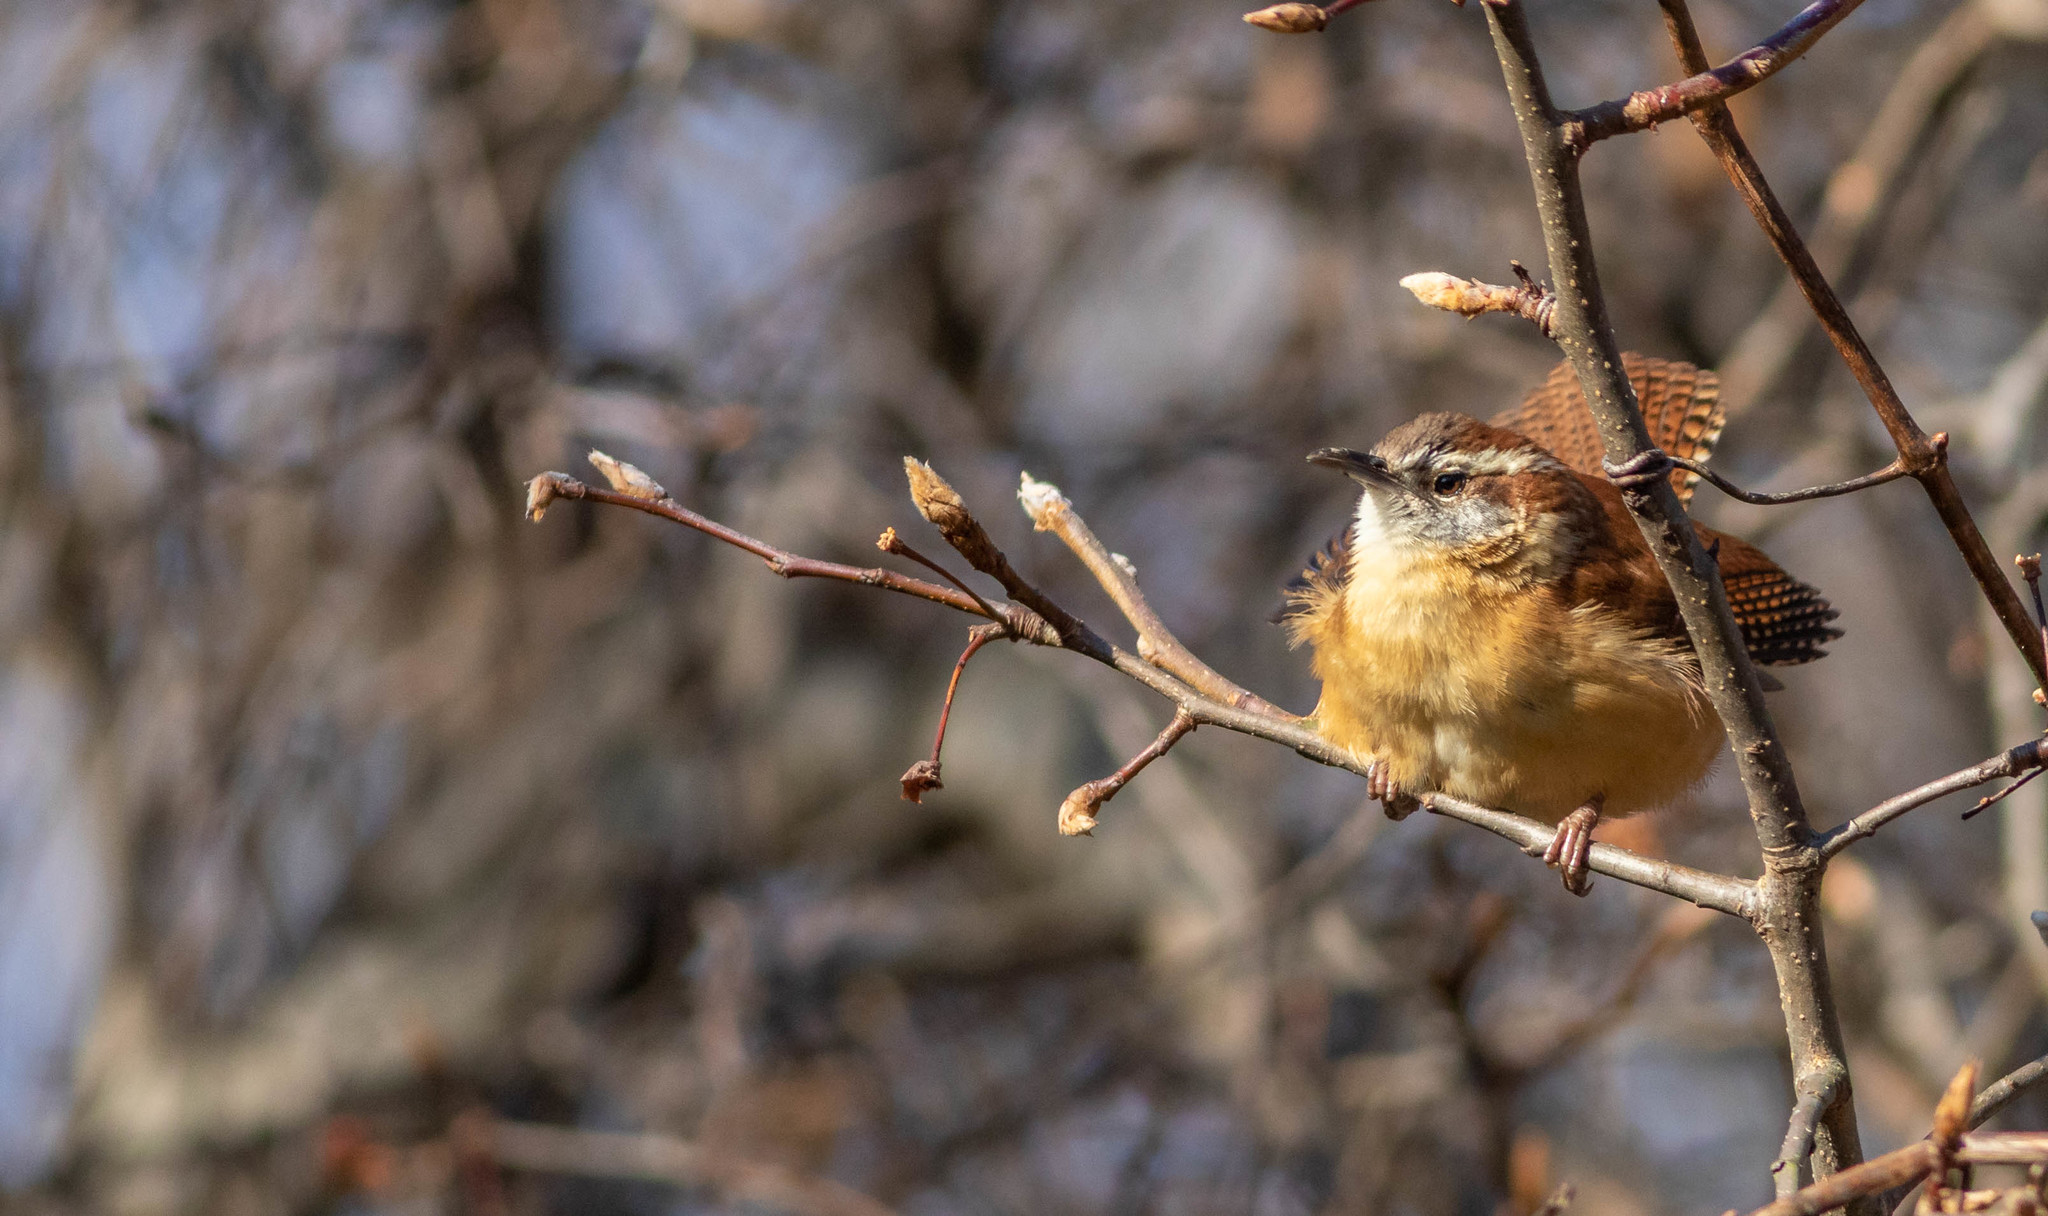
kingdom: Animalia
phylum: Chordata
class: Aves
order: Passeriformes
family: Troglodytidae
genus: Thryothorus
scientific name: Thryothorus ludovicianus
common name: Carolina wren
